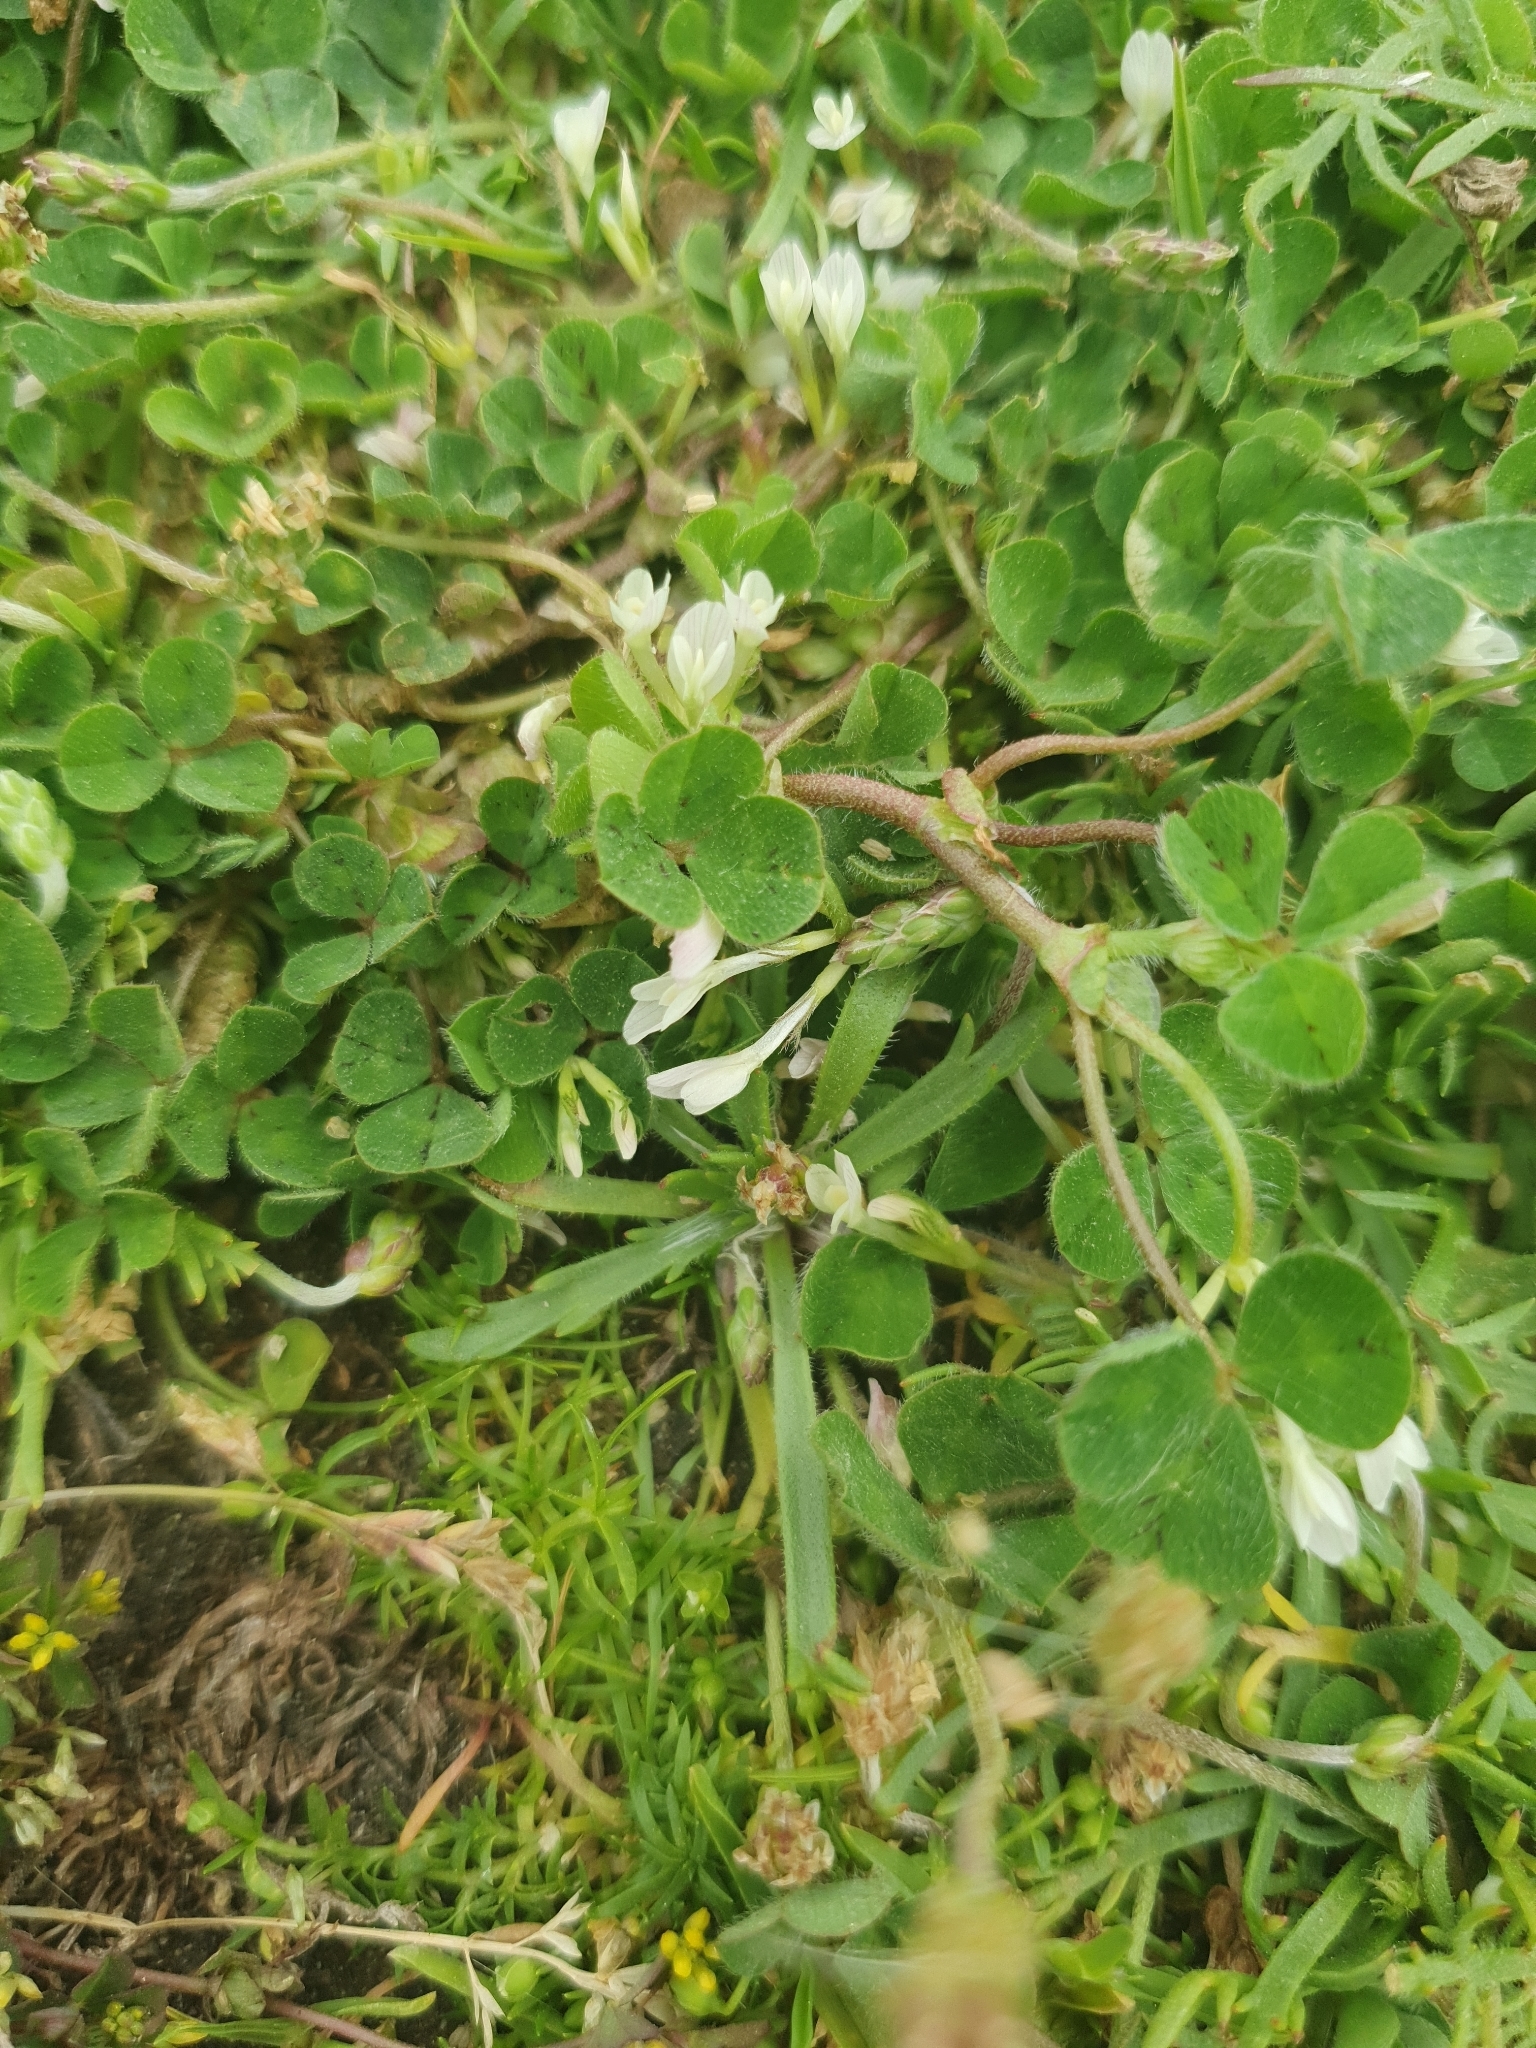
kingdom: Plantae
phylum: Tracheophyta
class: Magnoliopsida
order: Fabales
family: Fabaceae
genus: Trifolium
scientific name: Trifolium subterraneum
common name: Subterranean clover
